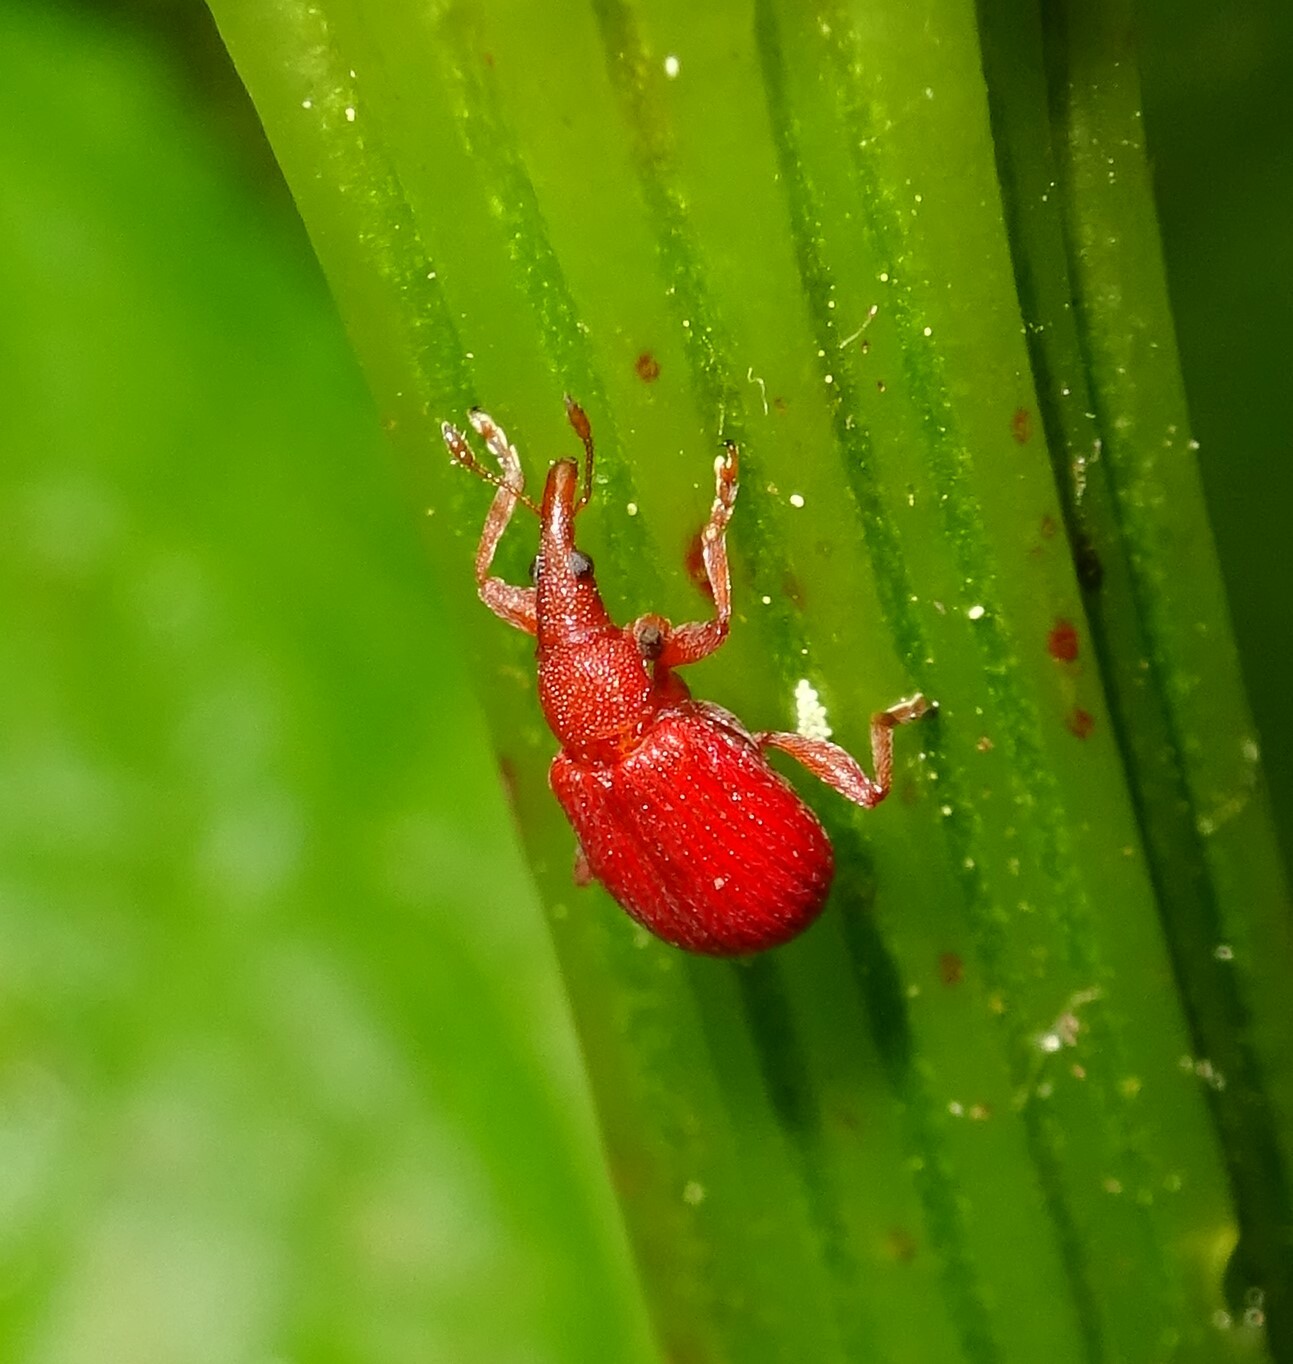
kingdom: Animalia
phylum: Arthropoda
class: Insecta
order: Coleoptera
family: Apionidae
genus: Apion
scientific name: Apion frumentarium
